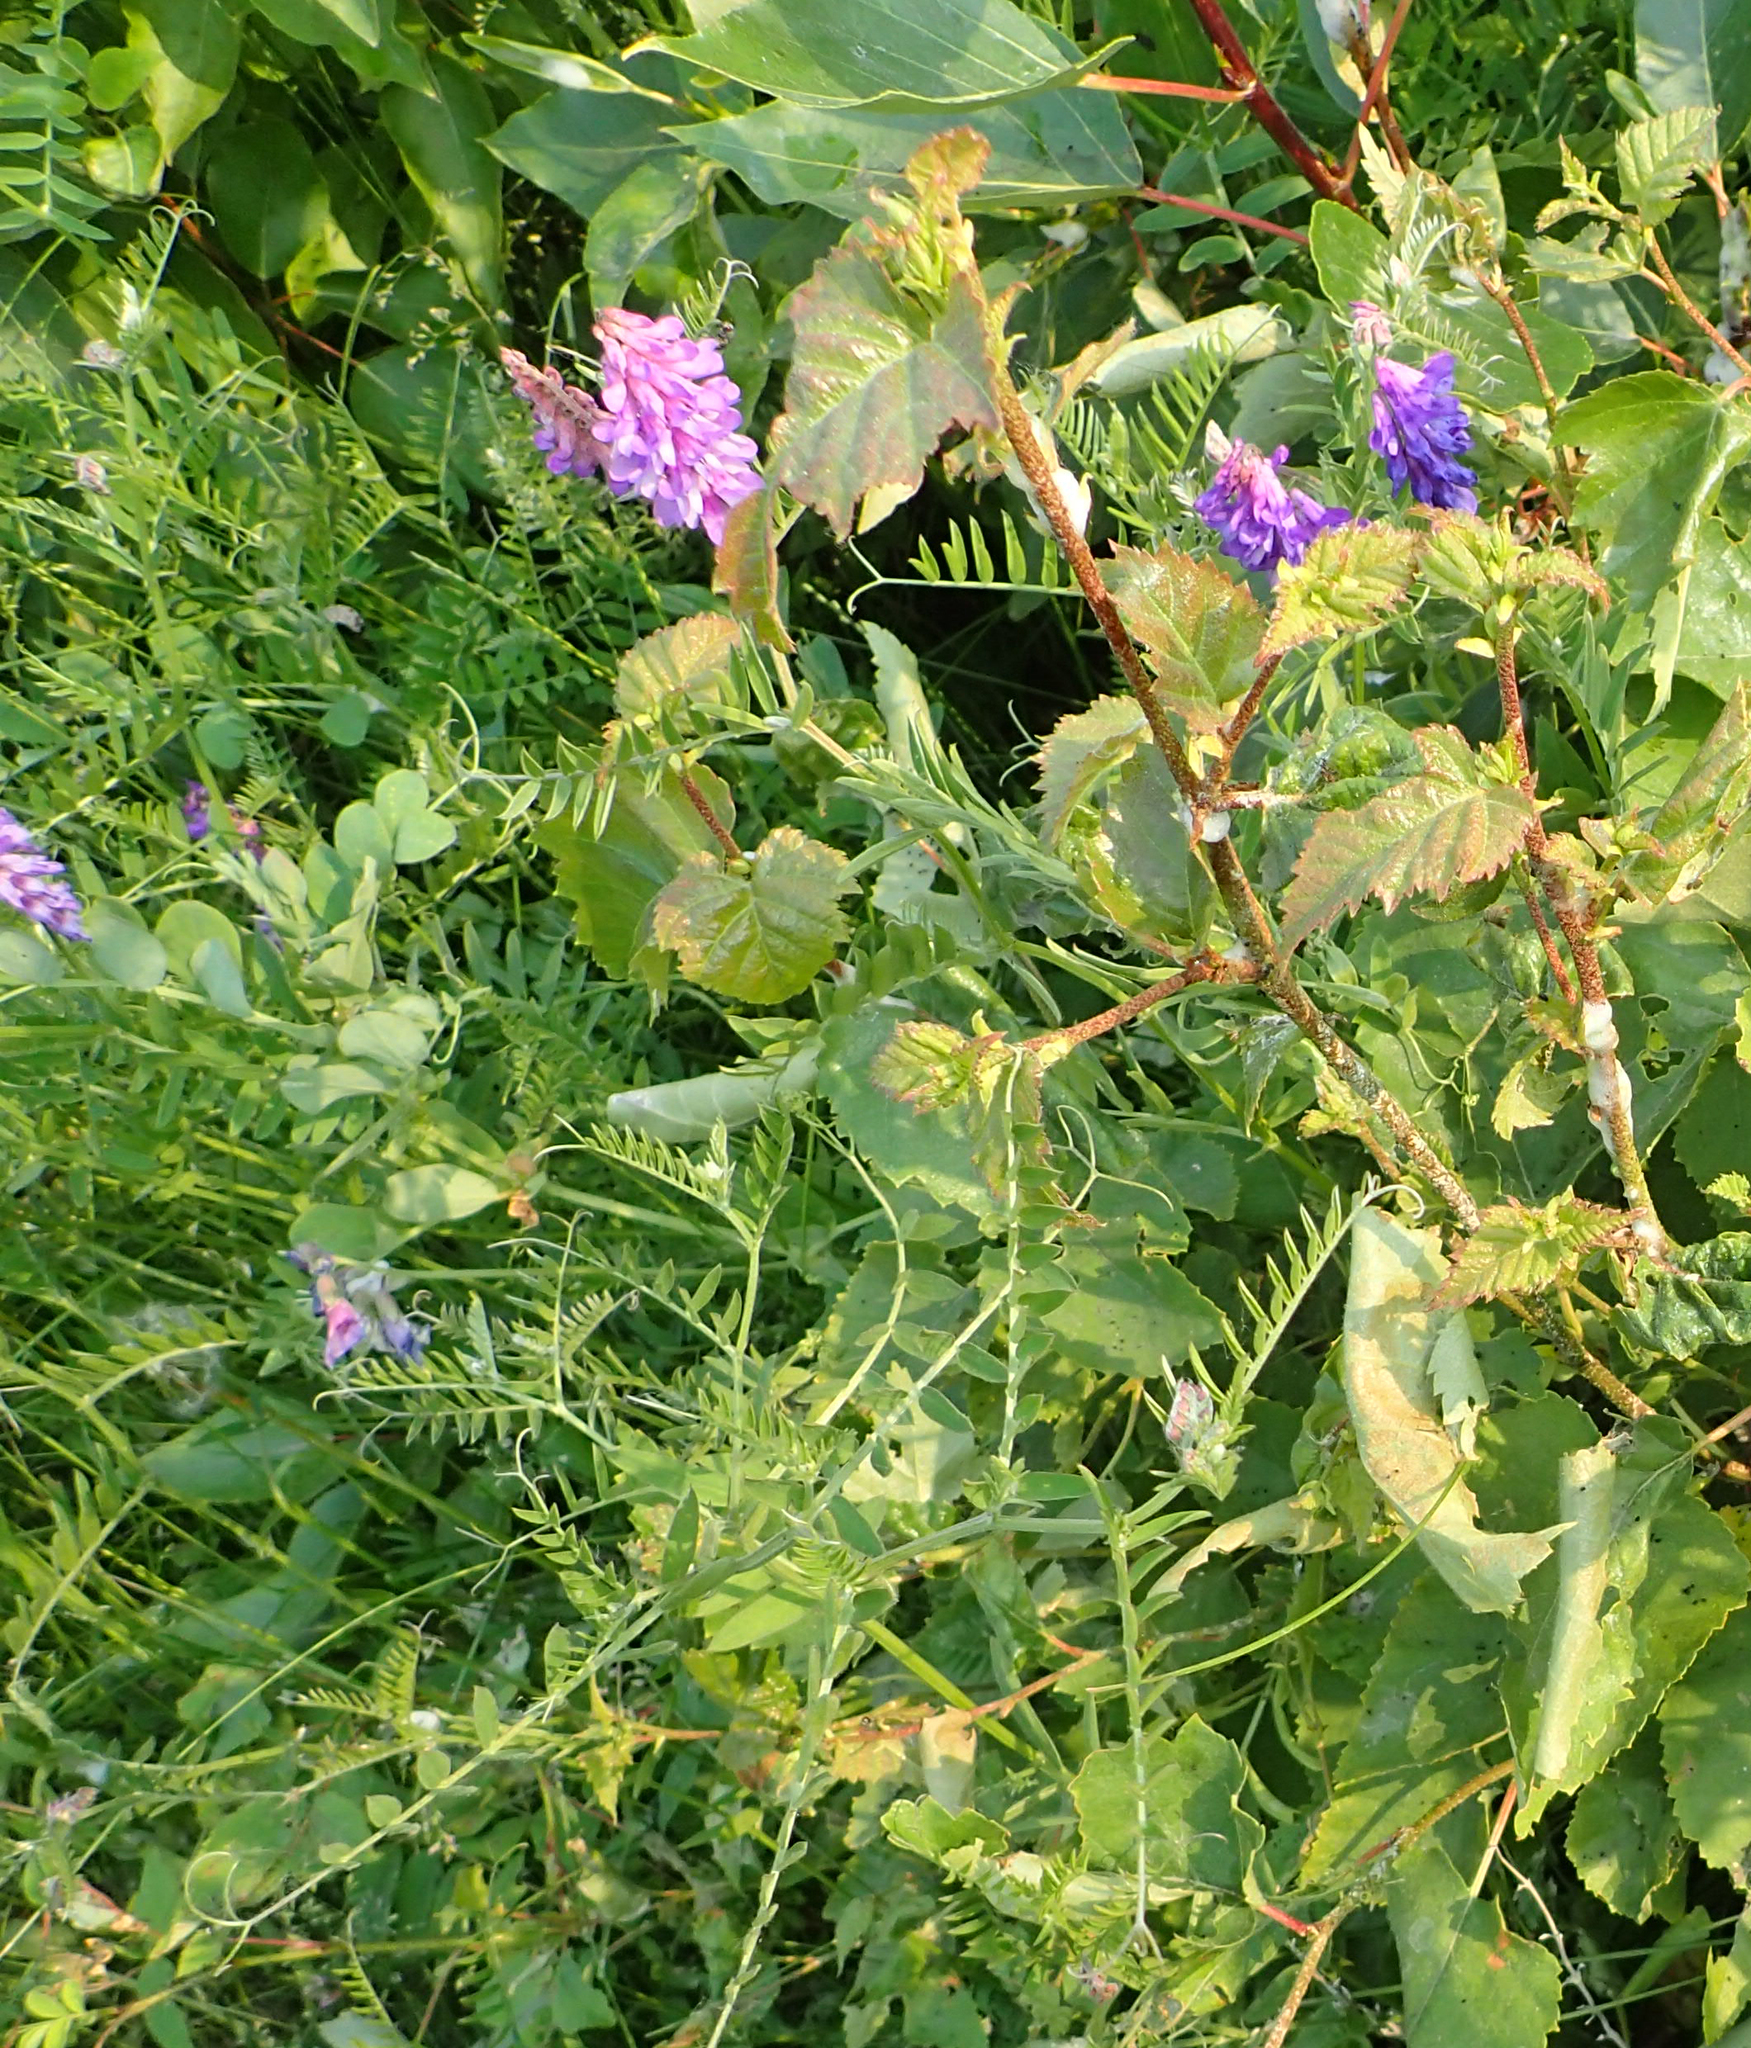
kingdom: Plantae
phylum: Tracheophyta
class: Magnoliopsida
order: Fabales
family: Fabaceae
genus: Vicia
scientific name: Vicia cracca
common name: Bird vetch
